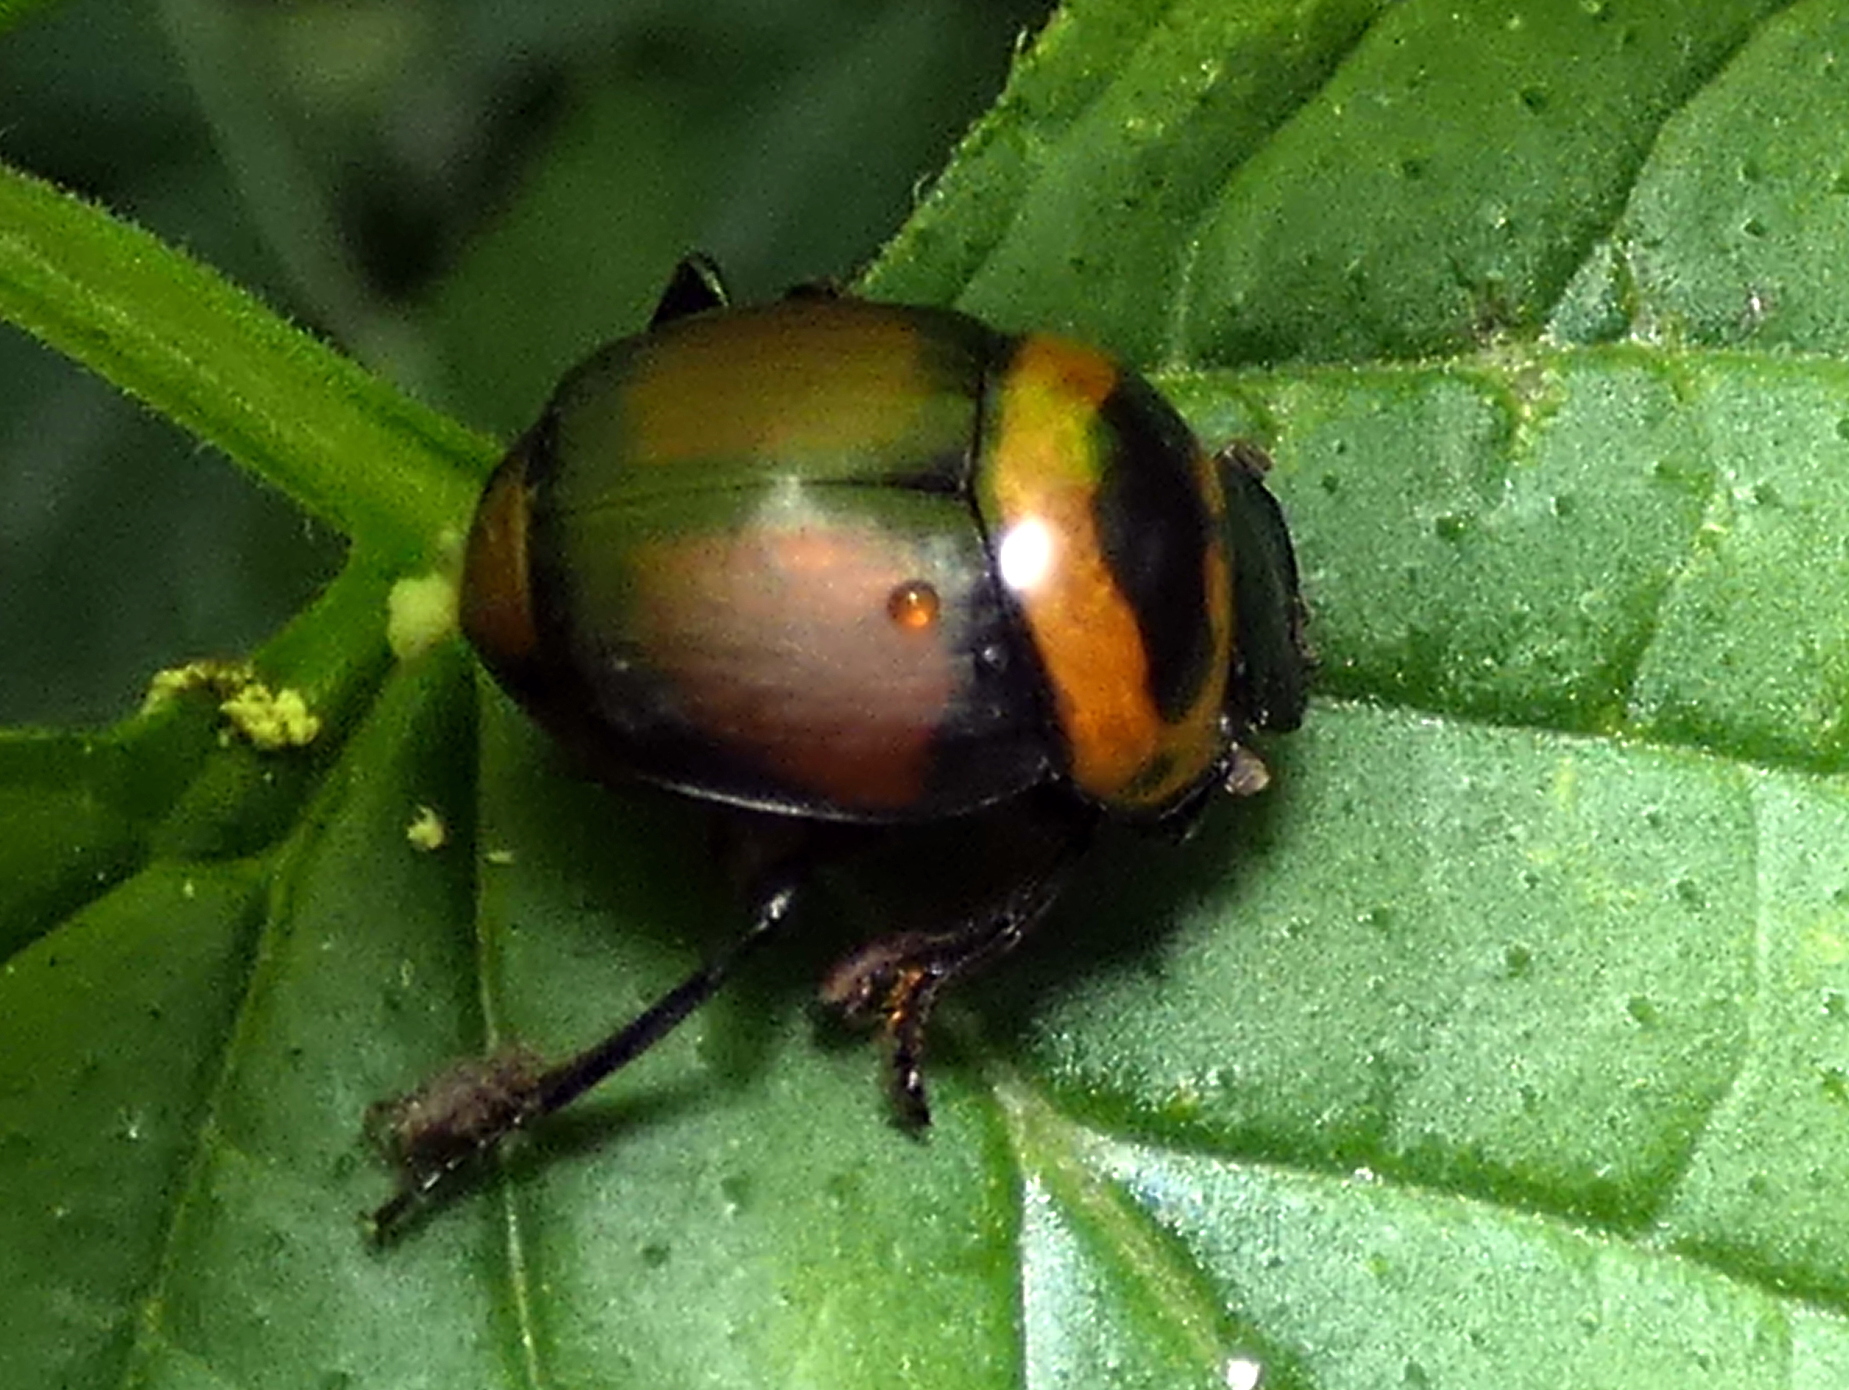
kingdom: Animalia
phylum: Arthropoda
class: Insecta
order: Coleoptera
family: Scarabaeidae
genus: Canthon
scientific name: Canthon quinquemaculatus
